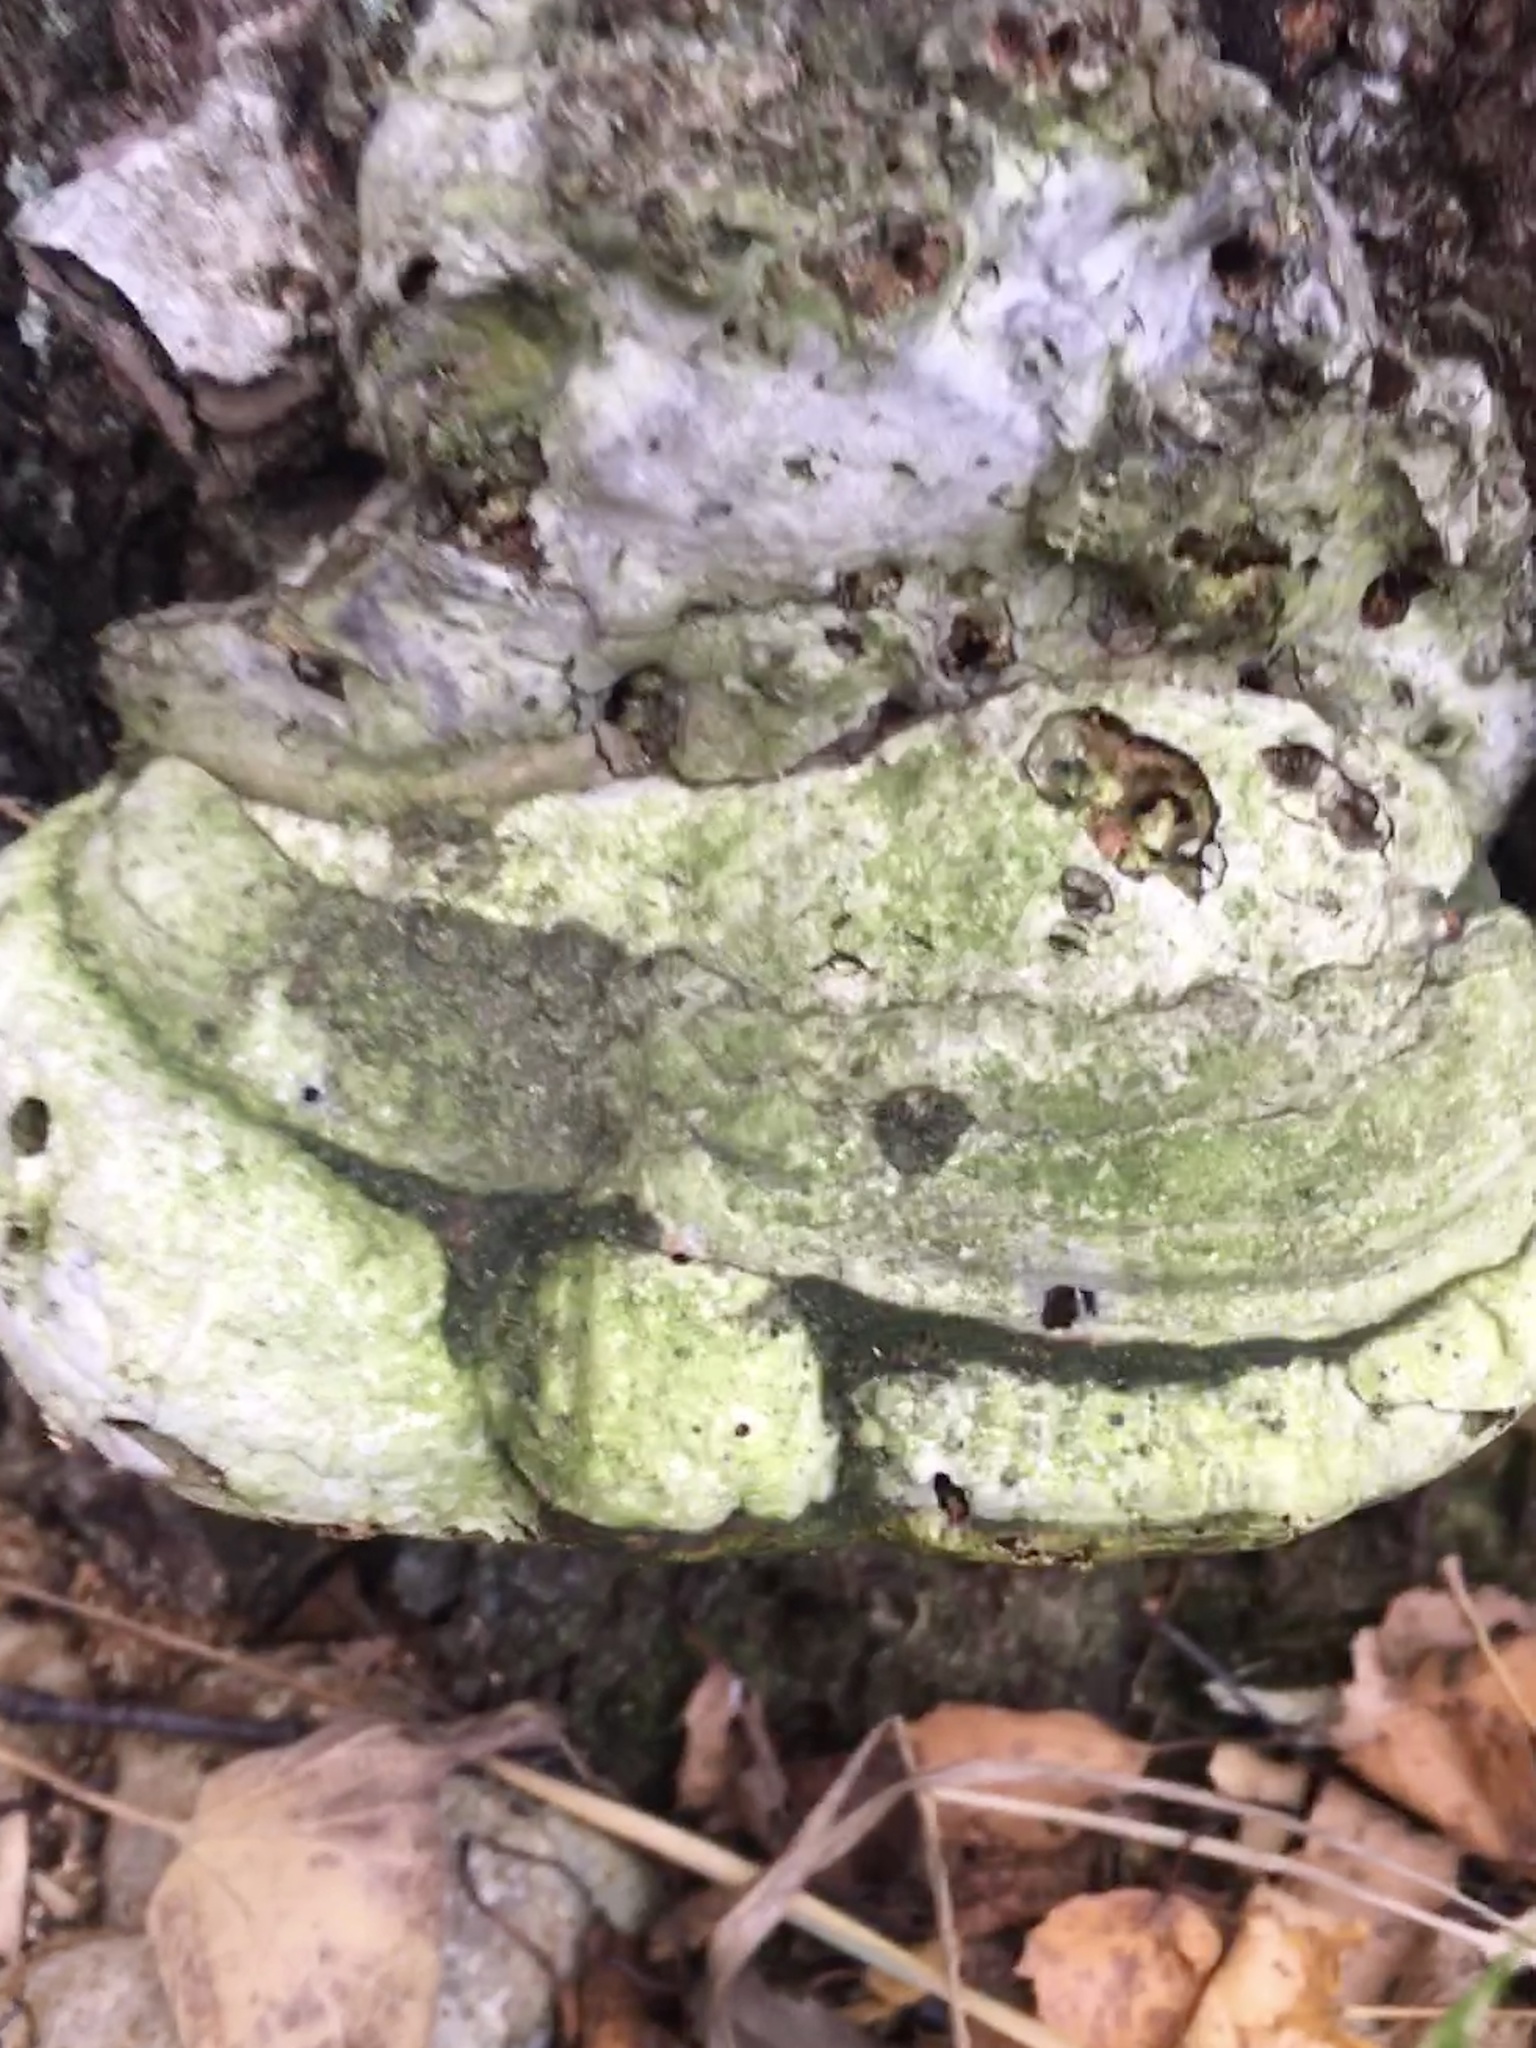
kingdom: Fungi
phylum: Basidiomycota
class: Agaricomycetes
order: Polyporales
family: Polyporaceae
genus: Fomes
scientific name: Fomes fomentarius
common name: Hoof fungus
